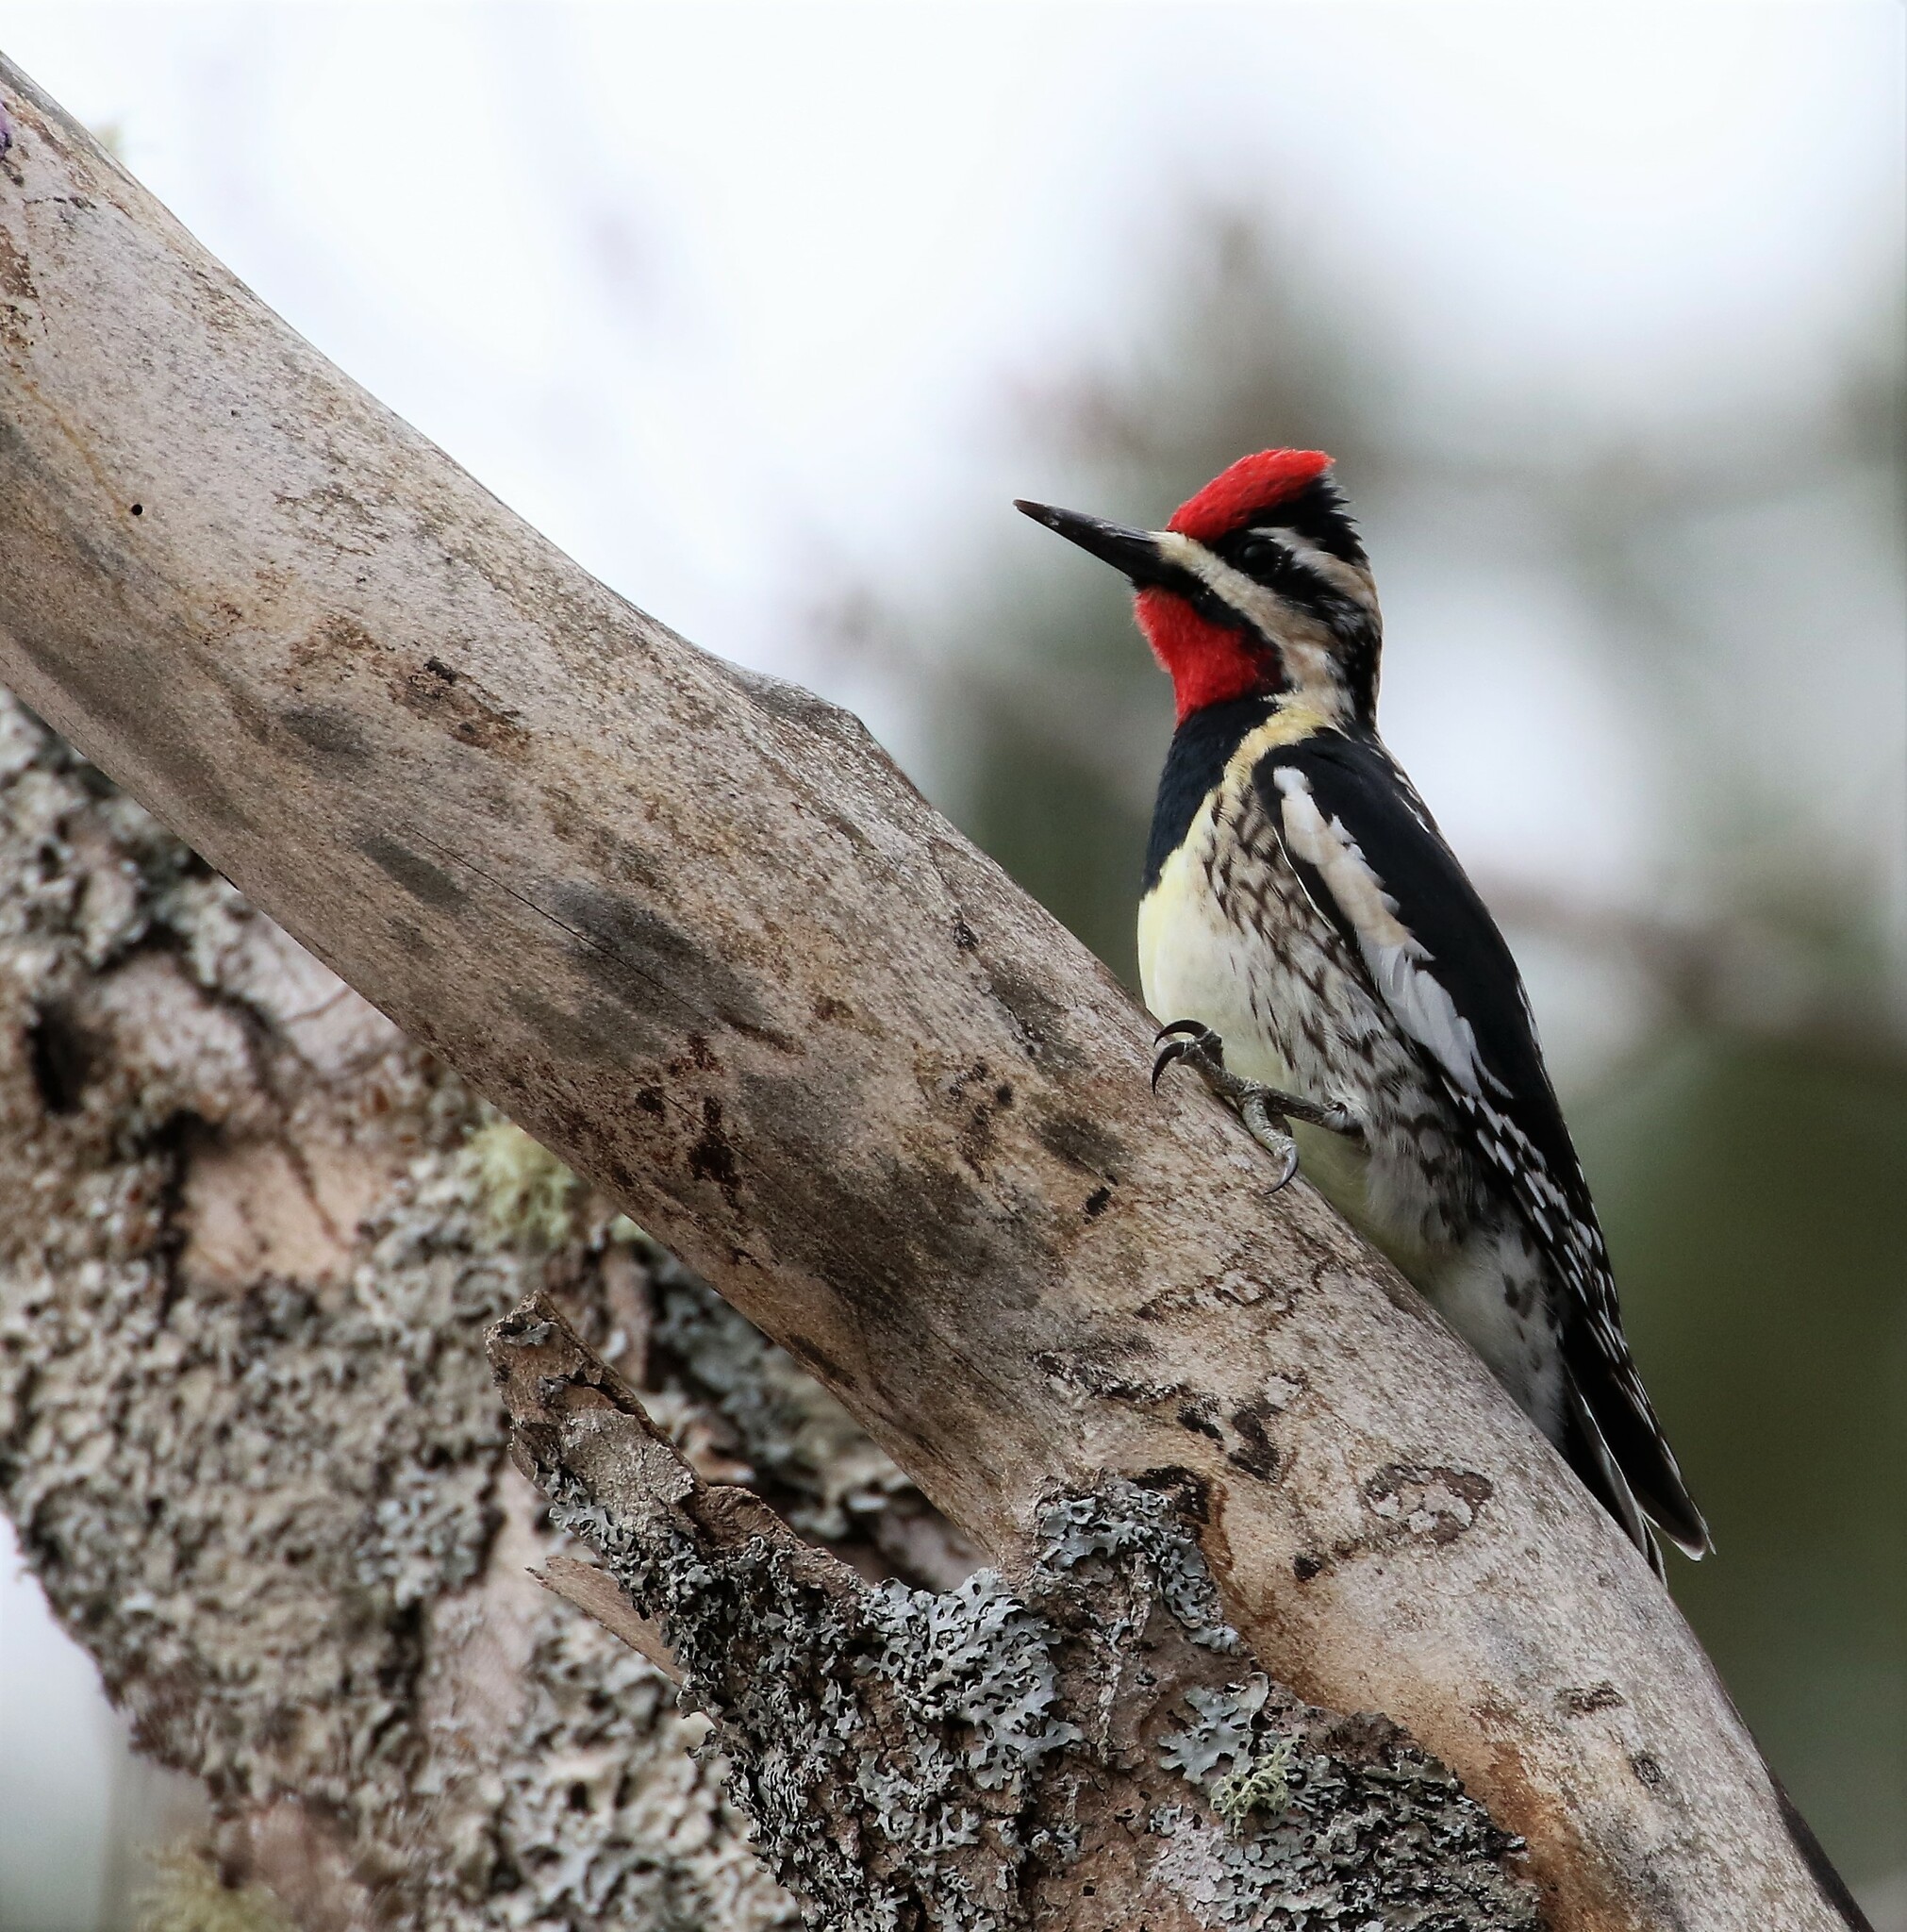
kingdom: Animalia
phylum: Chordata
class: Aves
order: Piciformes
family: Picidae
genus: Sphyrapicus
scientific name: Sphyrapicus varius
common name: Yellow-bellied sapsucker
